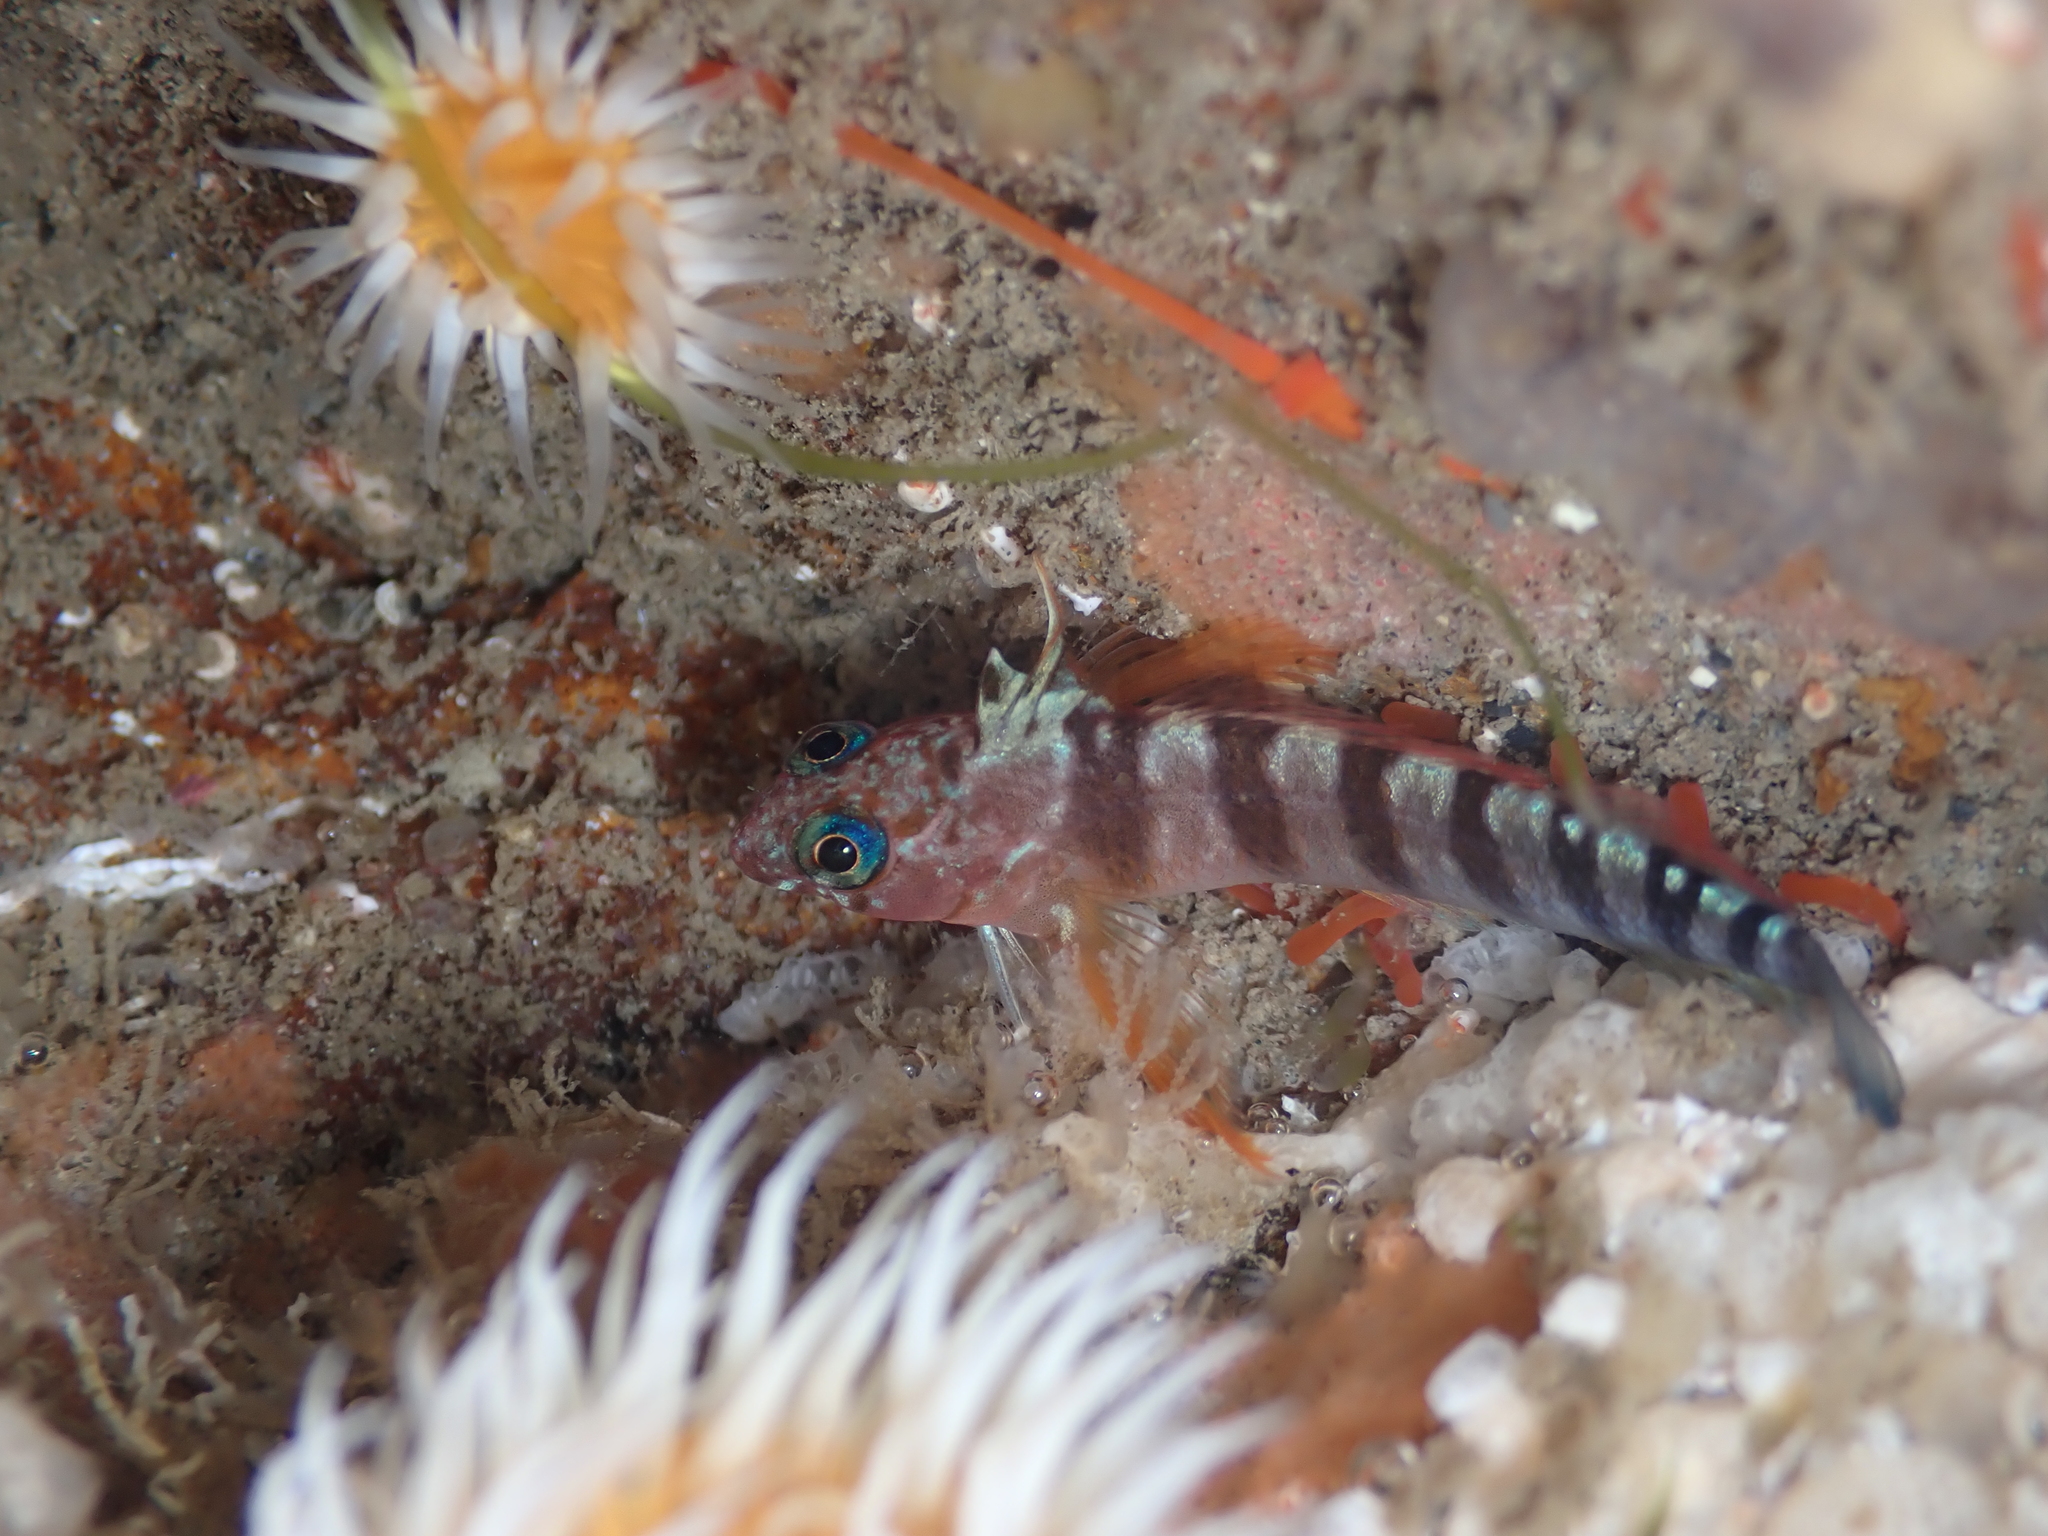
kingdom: Animalia
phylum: Chordata
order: Perciformes
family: Tripterygiidae
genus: Notoclinops
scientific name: Notoclinops segmentatus
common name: Blue-eyed triplefin
